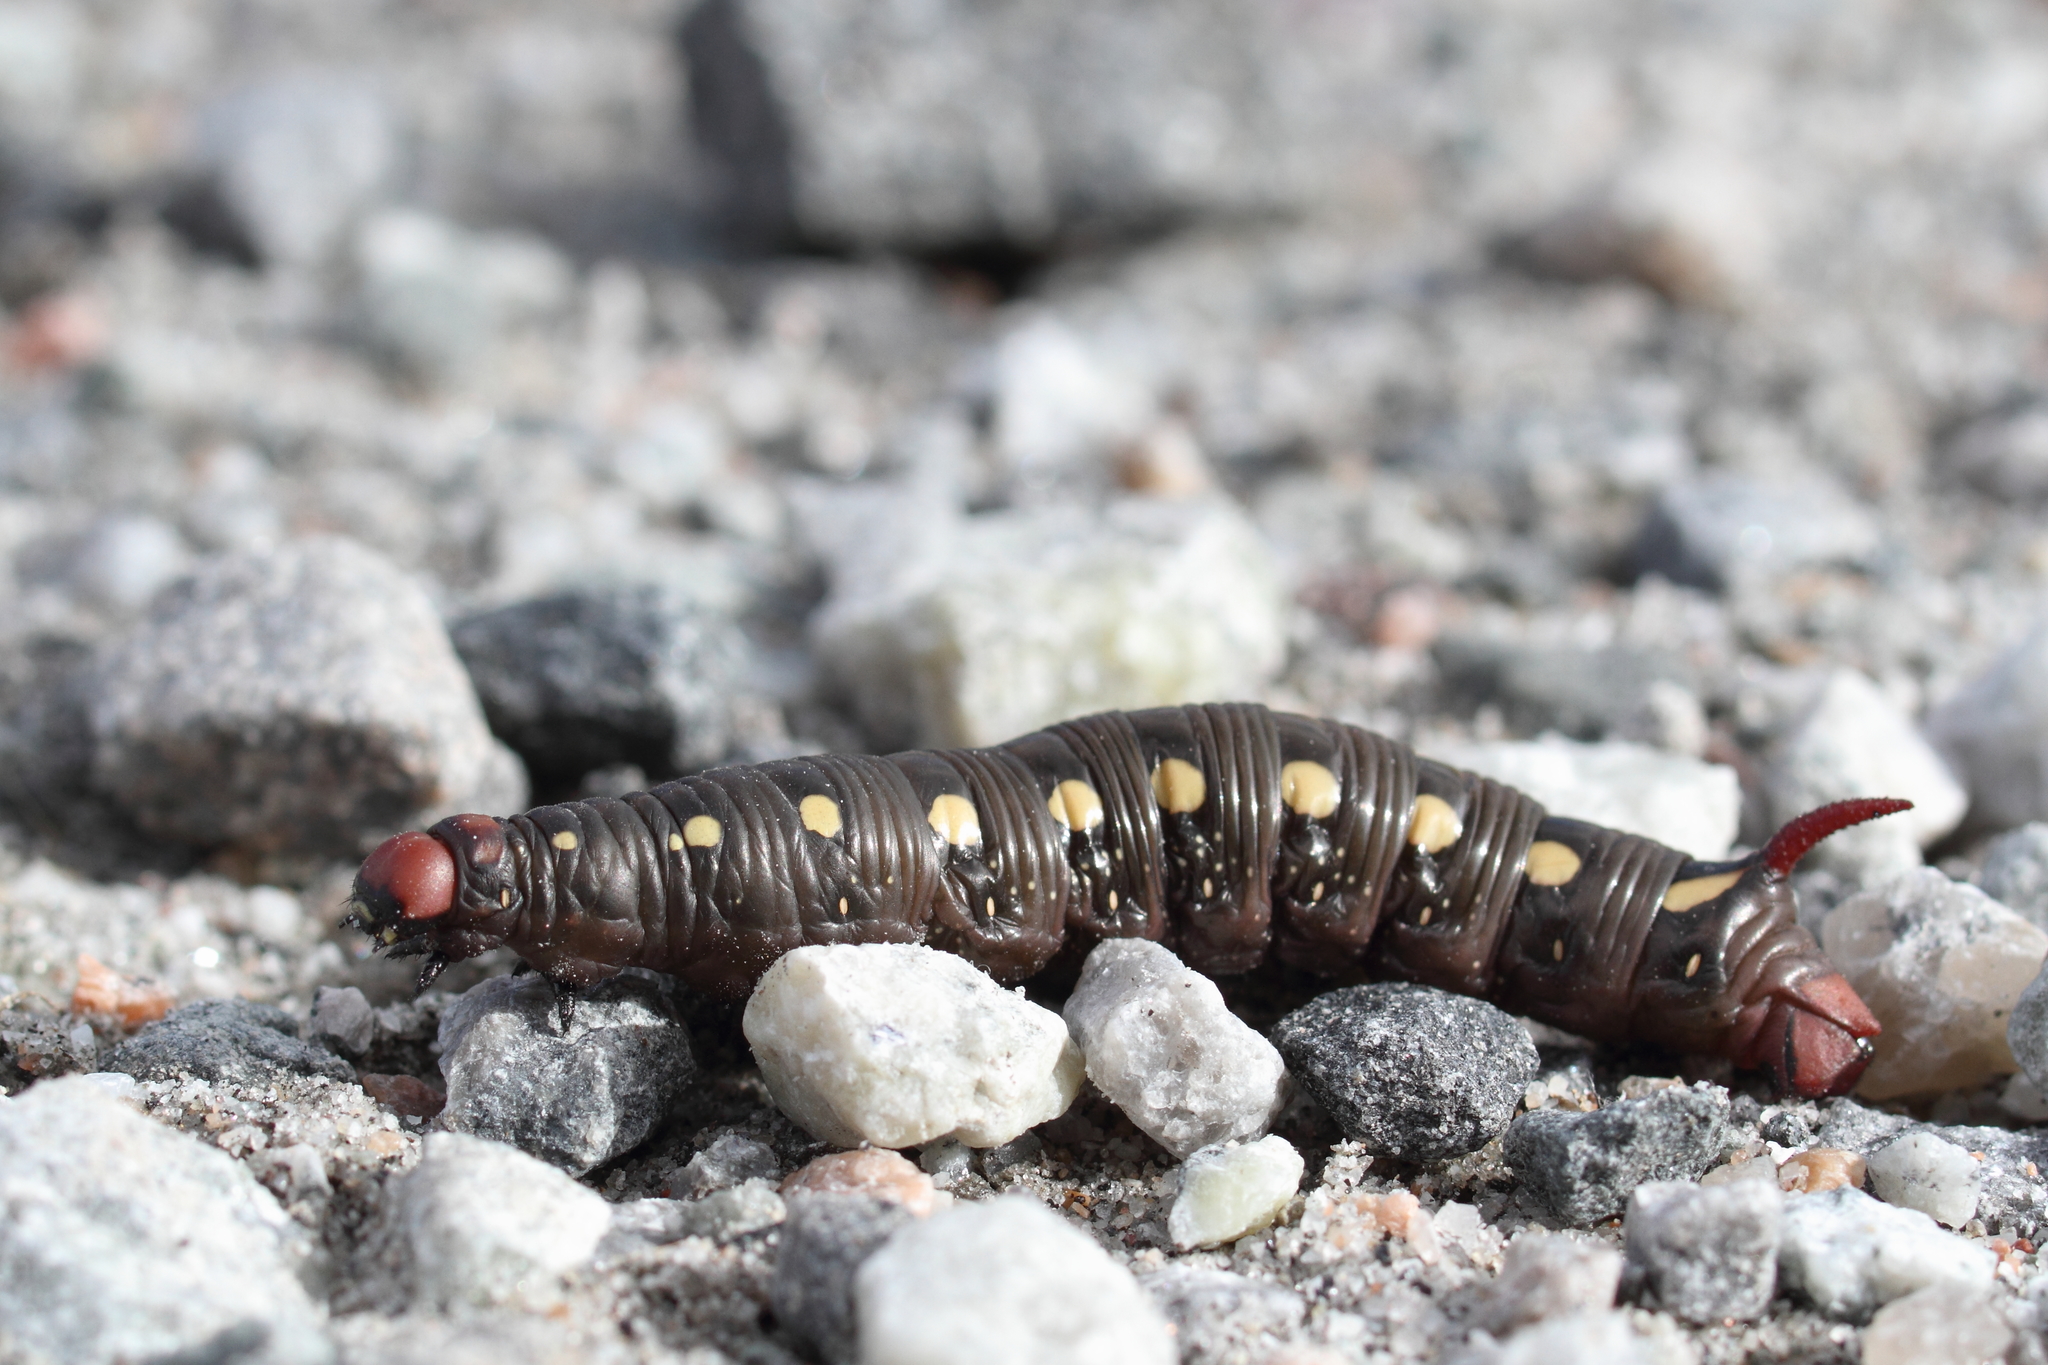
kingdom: Animalia
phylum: Arthropoda
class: Insecta
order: Lepidoptera
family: Sphingidae
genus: Hyles
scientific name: Hyles gallii
